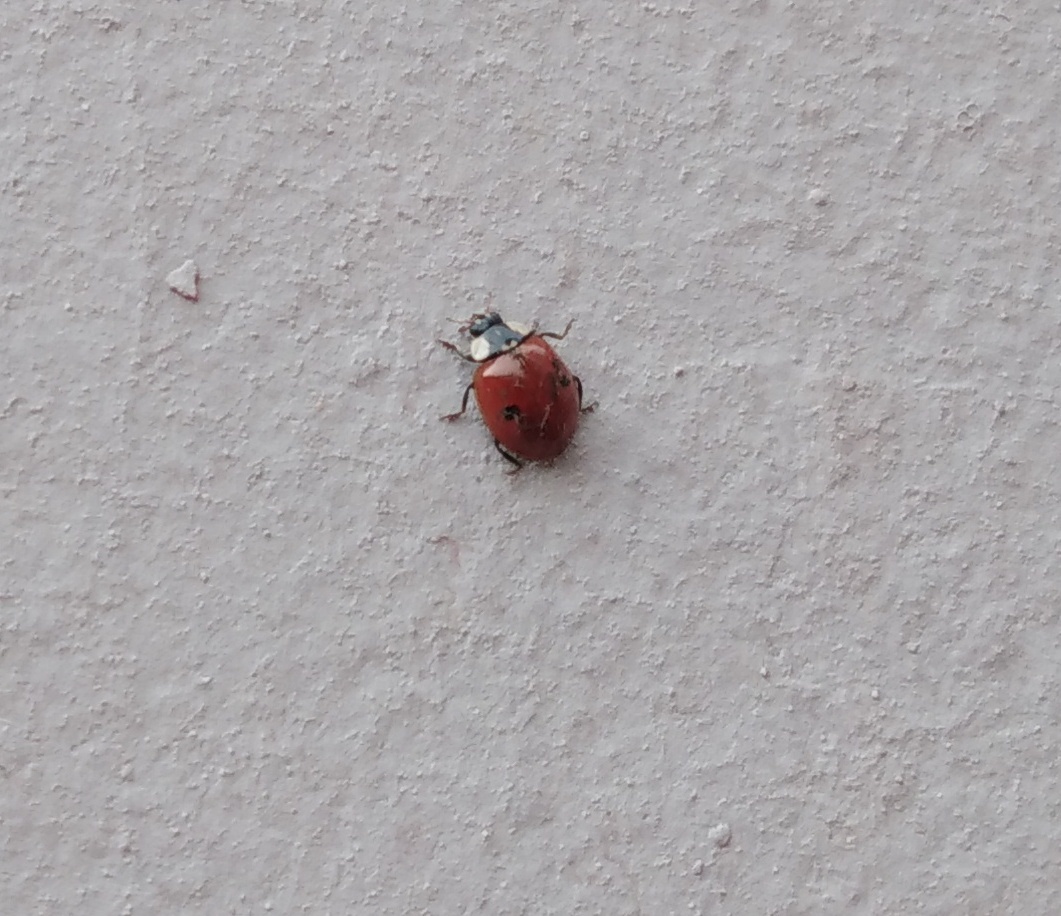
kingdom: Animalia
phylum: Arthropoda
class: Insecta
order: Coleoptera
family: Coccinellidae
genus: Adalia
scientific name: Adalia bipunctata
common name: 2-spot ladybird
